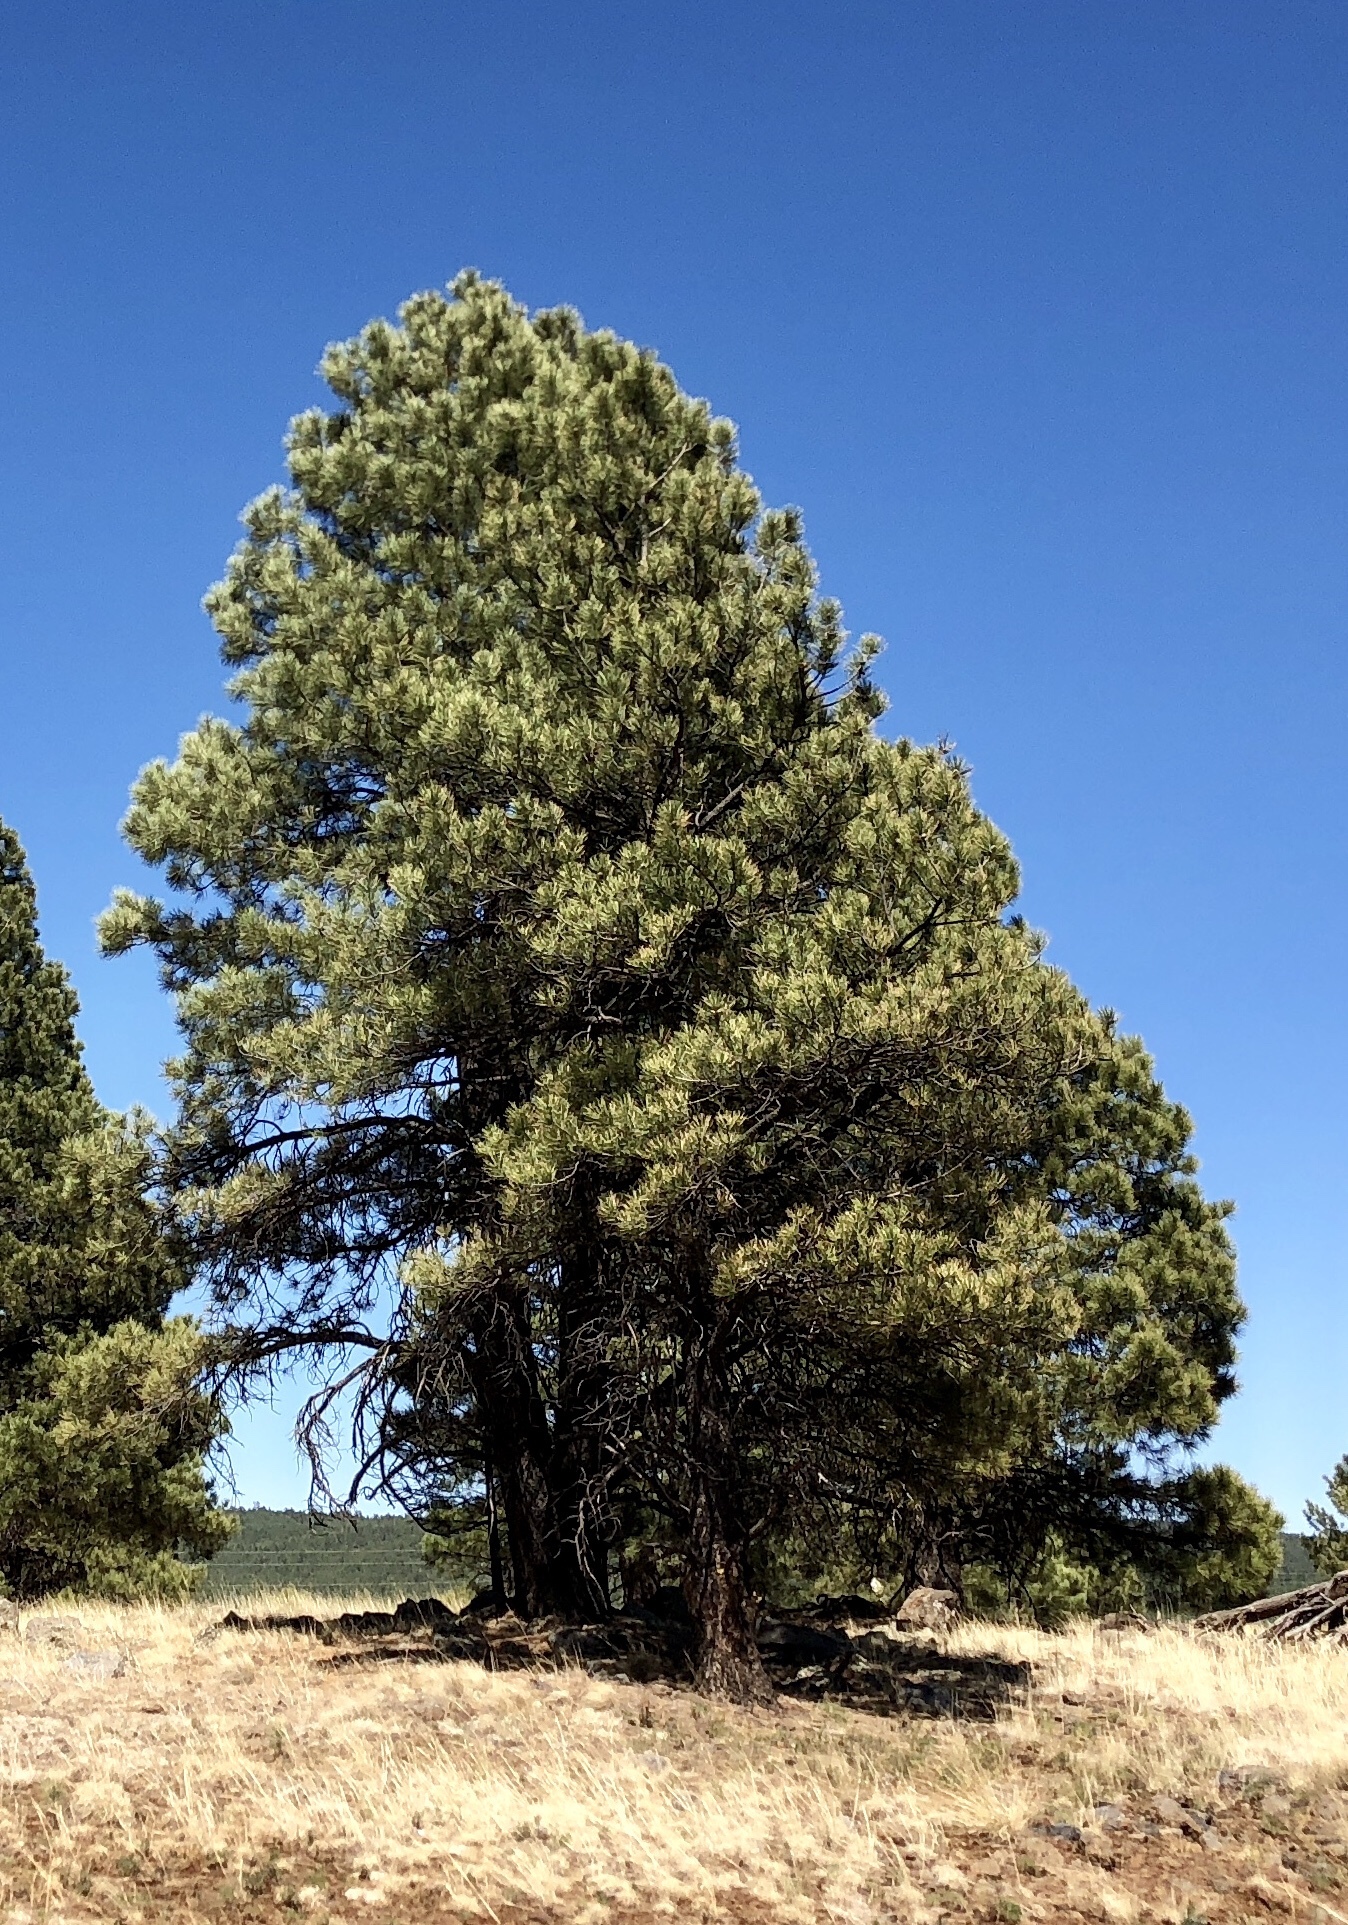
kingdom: Plantae
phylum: Tracheophyta
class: Pinopsida
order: Pinales
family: Pinaceae
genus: Pinus
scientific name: Pinus ponderosa
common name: Western yellow-pine
